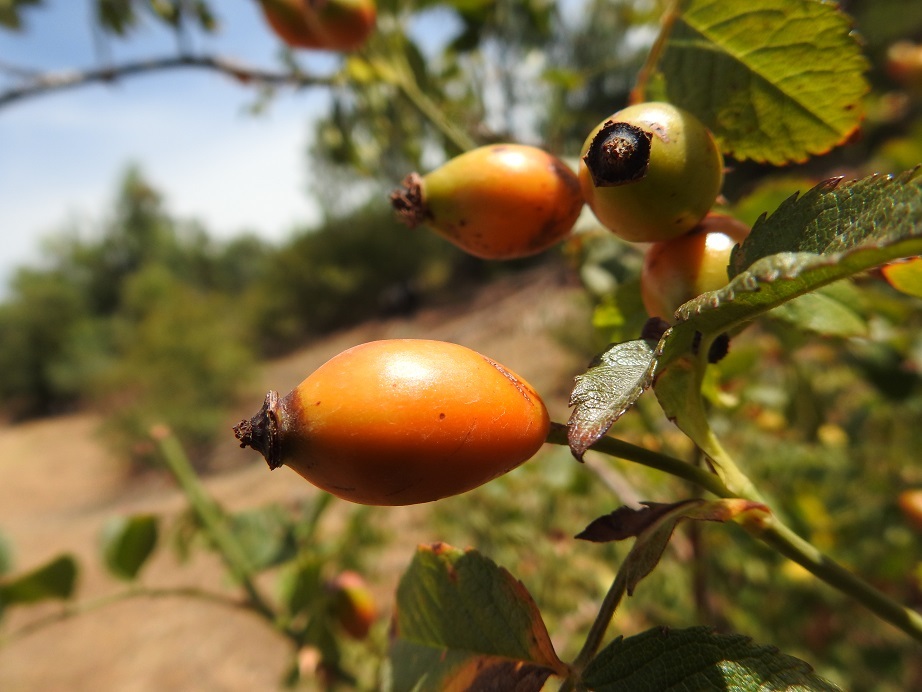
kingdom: Plantae
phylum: Tracheophyta
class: Magnoliopsida
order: Rosales
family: Rosaceae
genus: Rosa
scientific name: Rosa canina
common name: Dog rose
